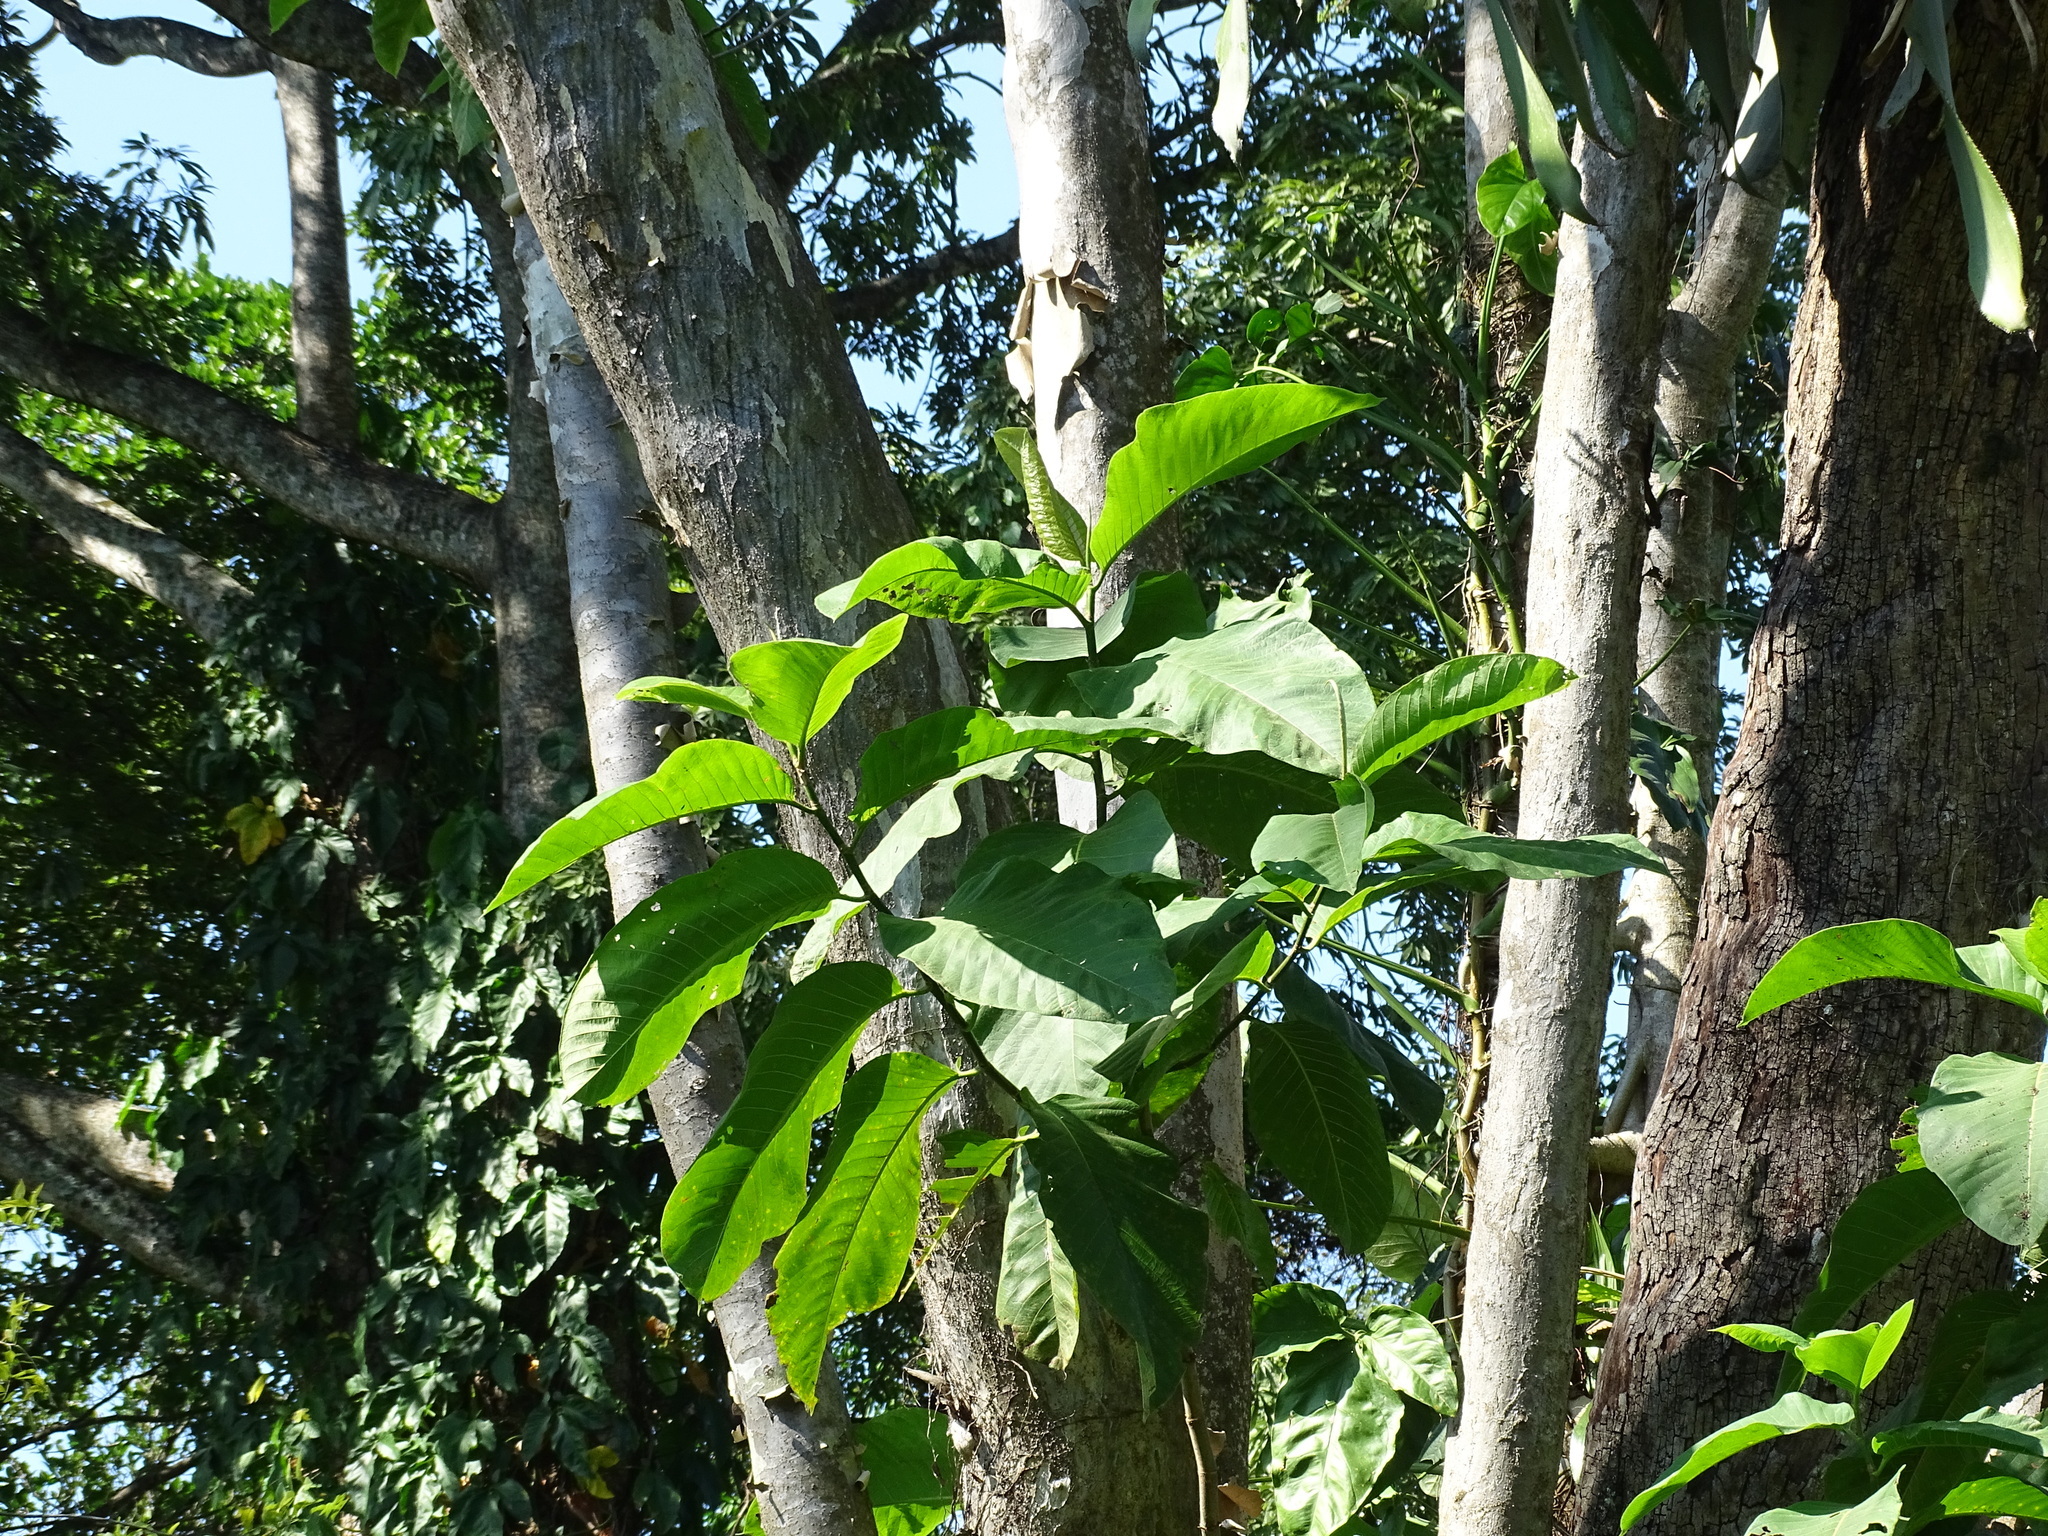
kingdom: Plantae
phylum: Tracheophyta
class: Magnoliopsida
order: Caryophyllales
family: Polygonaceae
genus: Triplaris
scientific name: Triplaris melaenodendron
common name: Long john
